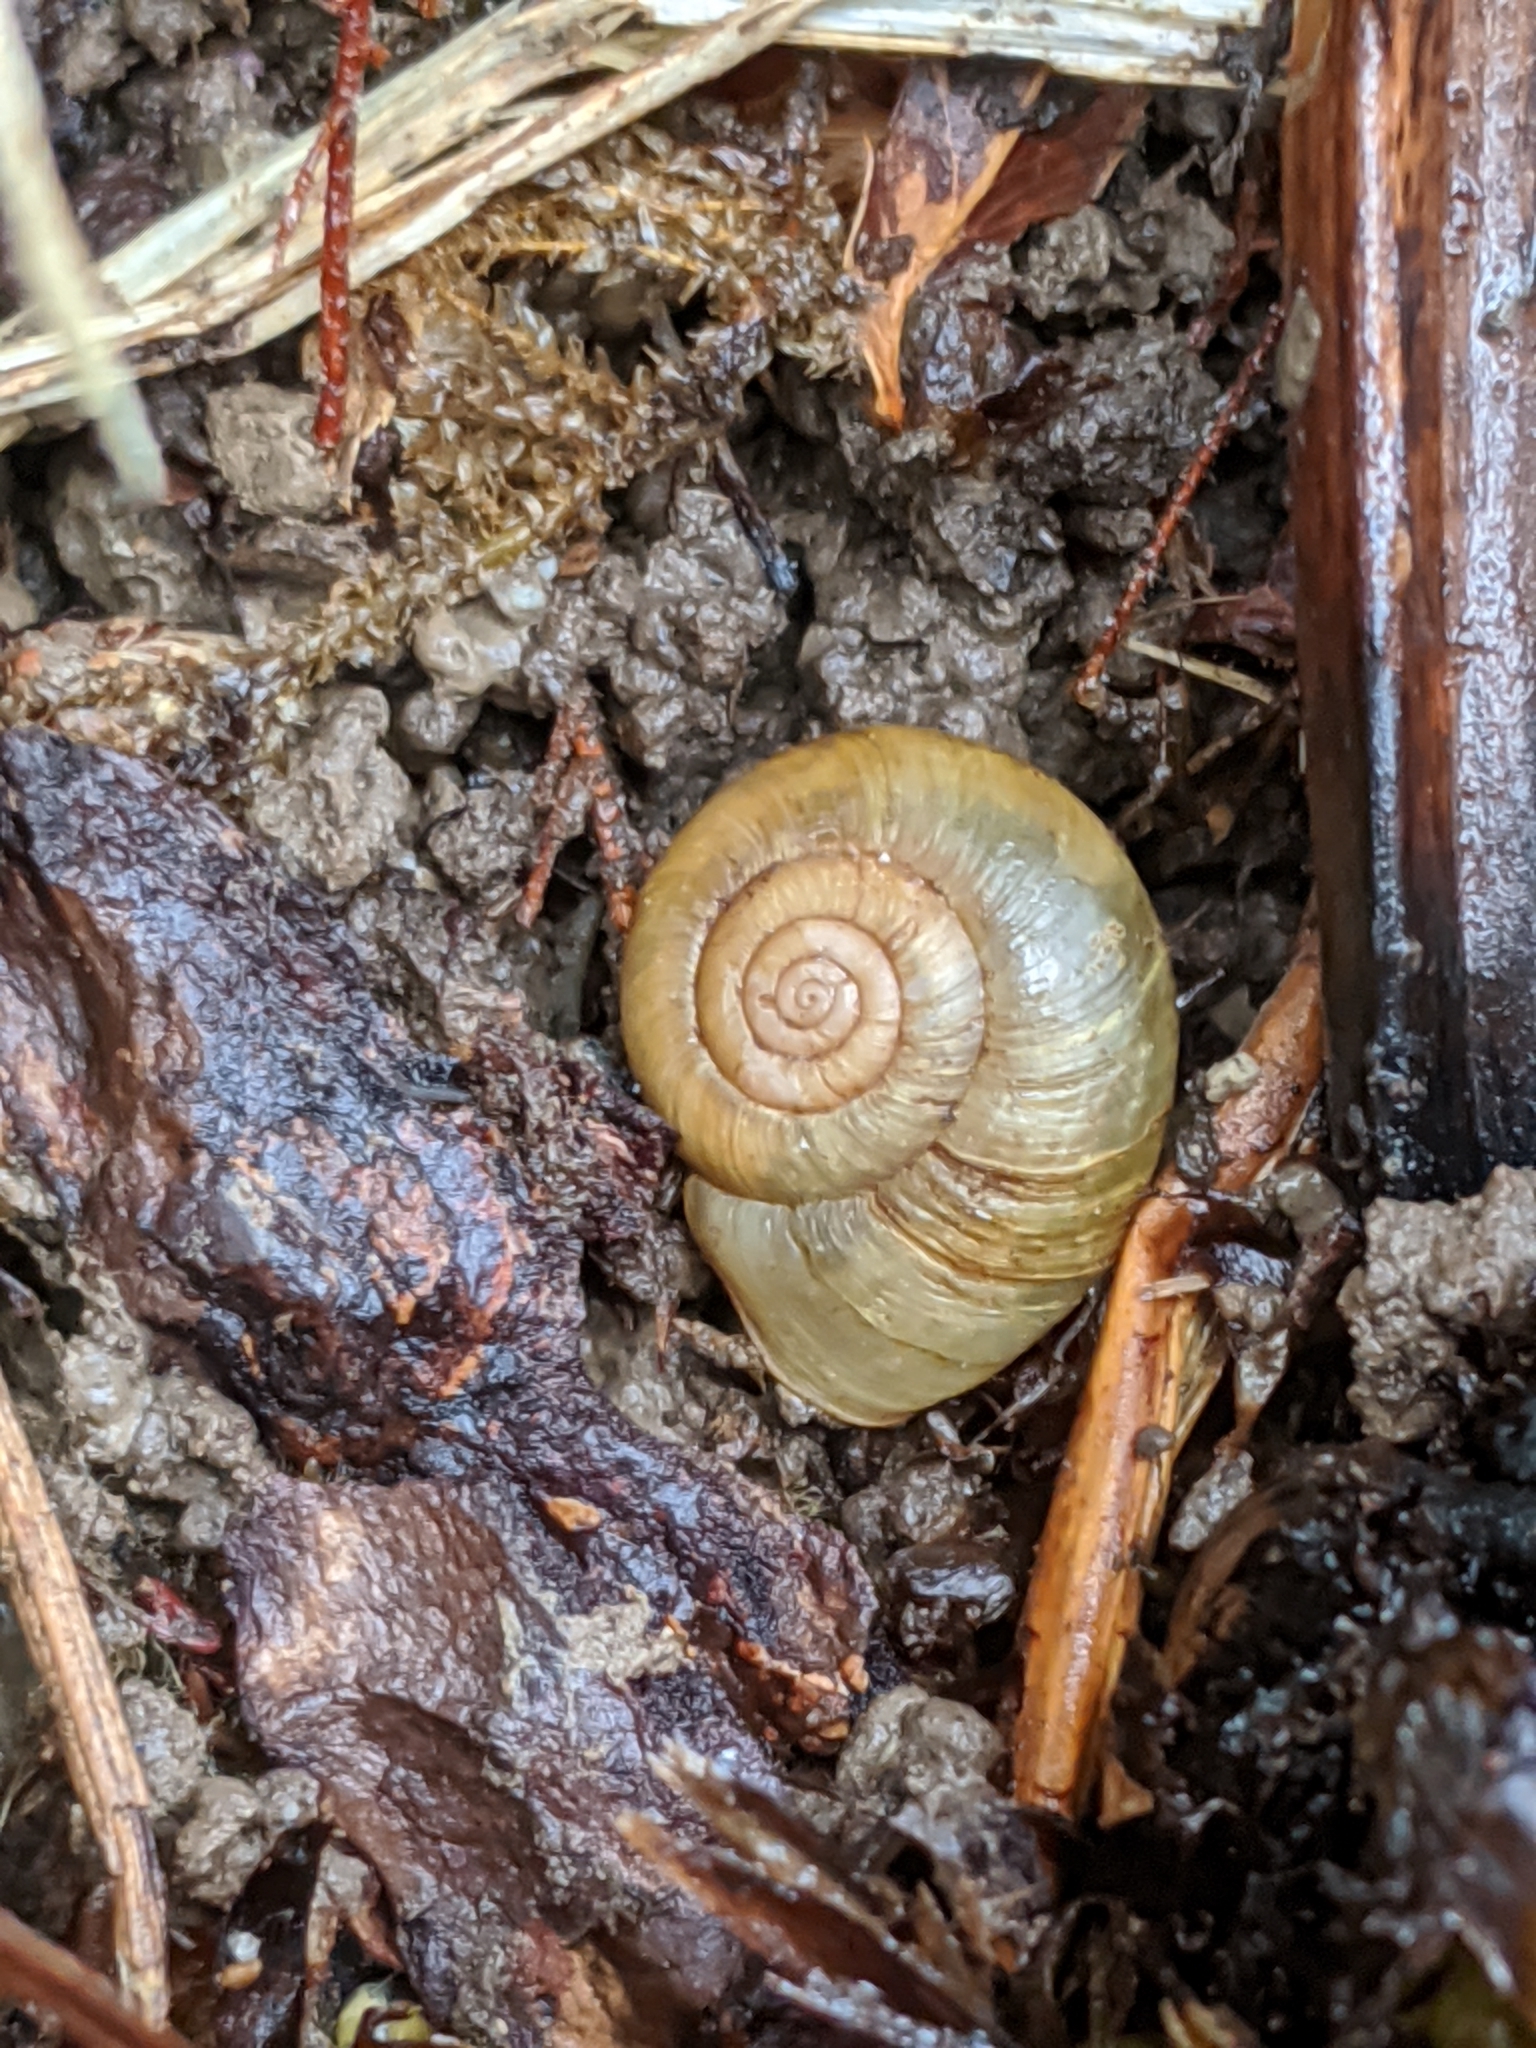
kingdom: Animalia
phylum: Mollusca
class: Gastropoda
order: Stylommatophora
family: Haplotrematidae
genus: Haplotrema
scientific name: Haplotrema vancouverense
